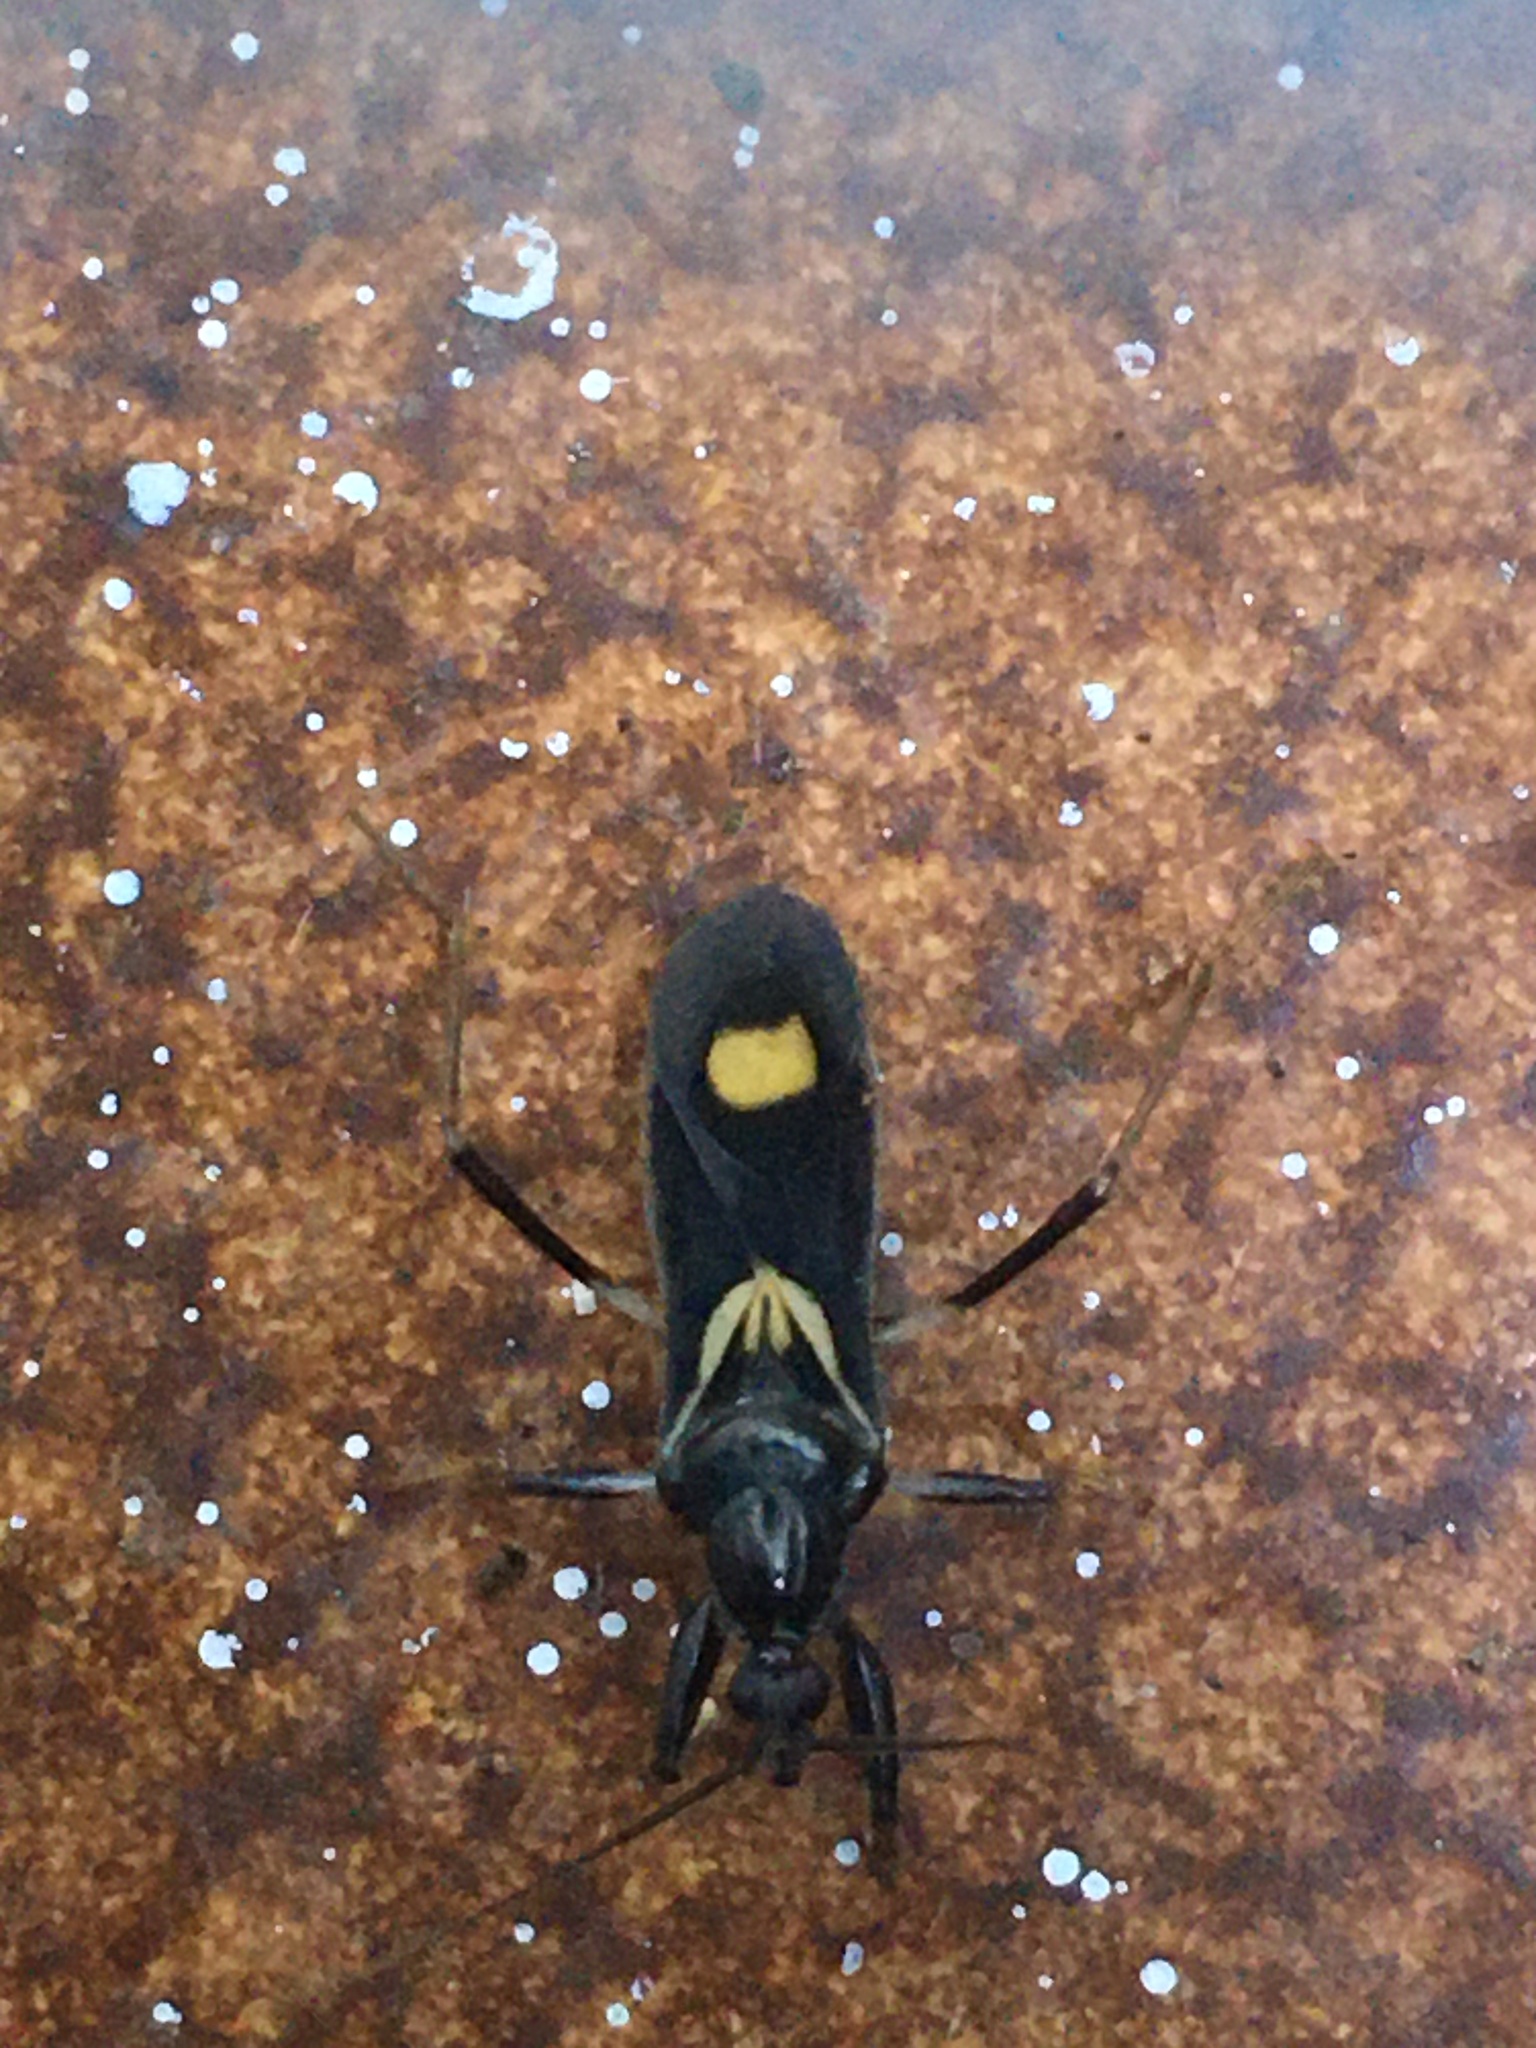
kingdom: Animalia
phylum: Arthropoda
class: Insecta
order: Hemiptera
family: Reduviidae
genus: Rasahus
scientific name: Rasahus hamatus
